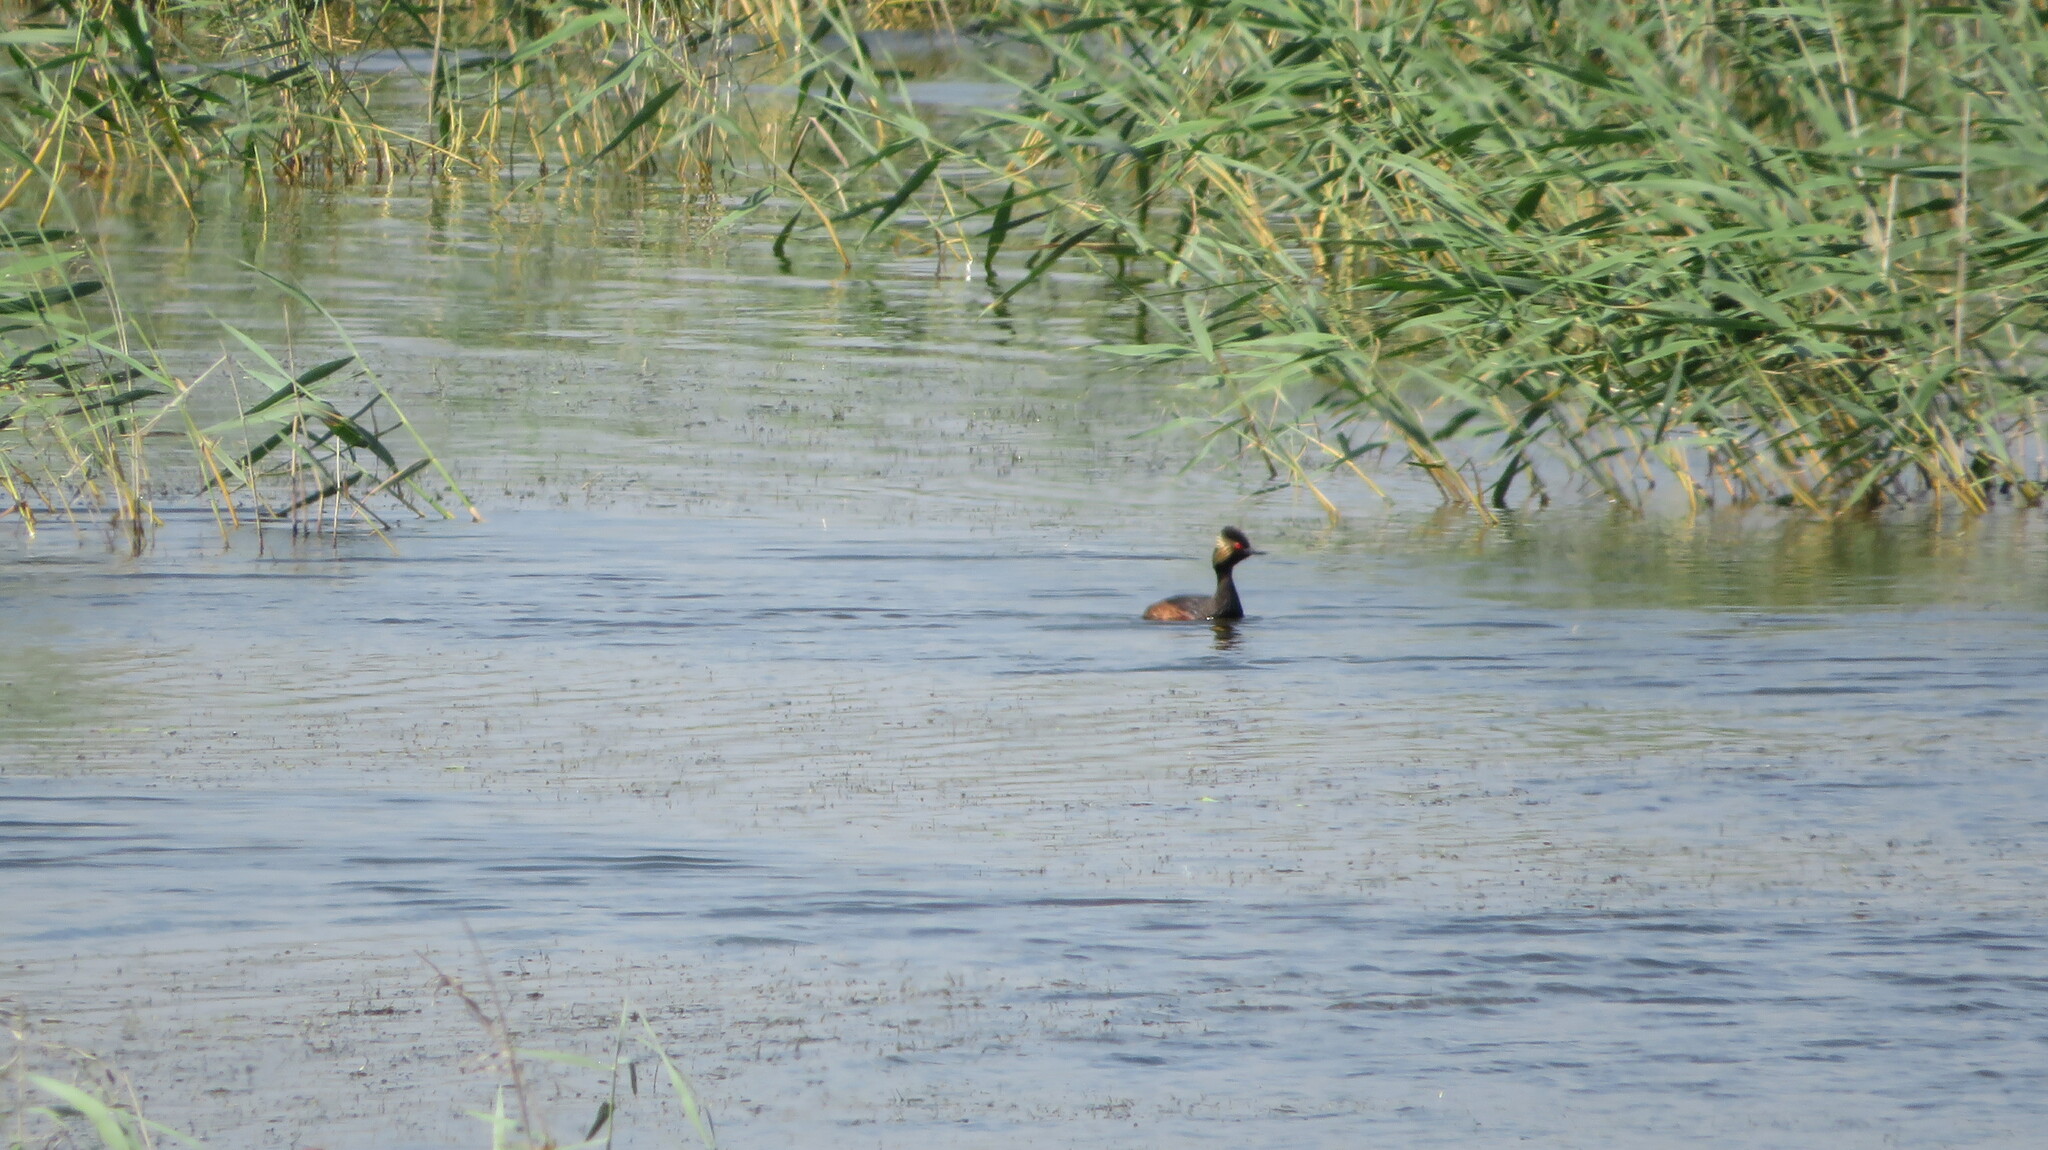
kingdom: Animalia
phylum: Chordata
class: Aves
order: Podicipediformes
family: Podicipedidae
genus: Podiceps
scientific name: Podiceps nigricollis
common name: Black-necked grebe
